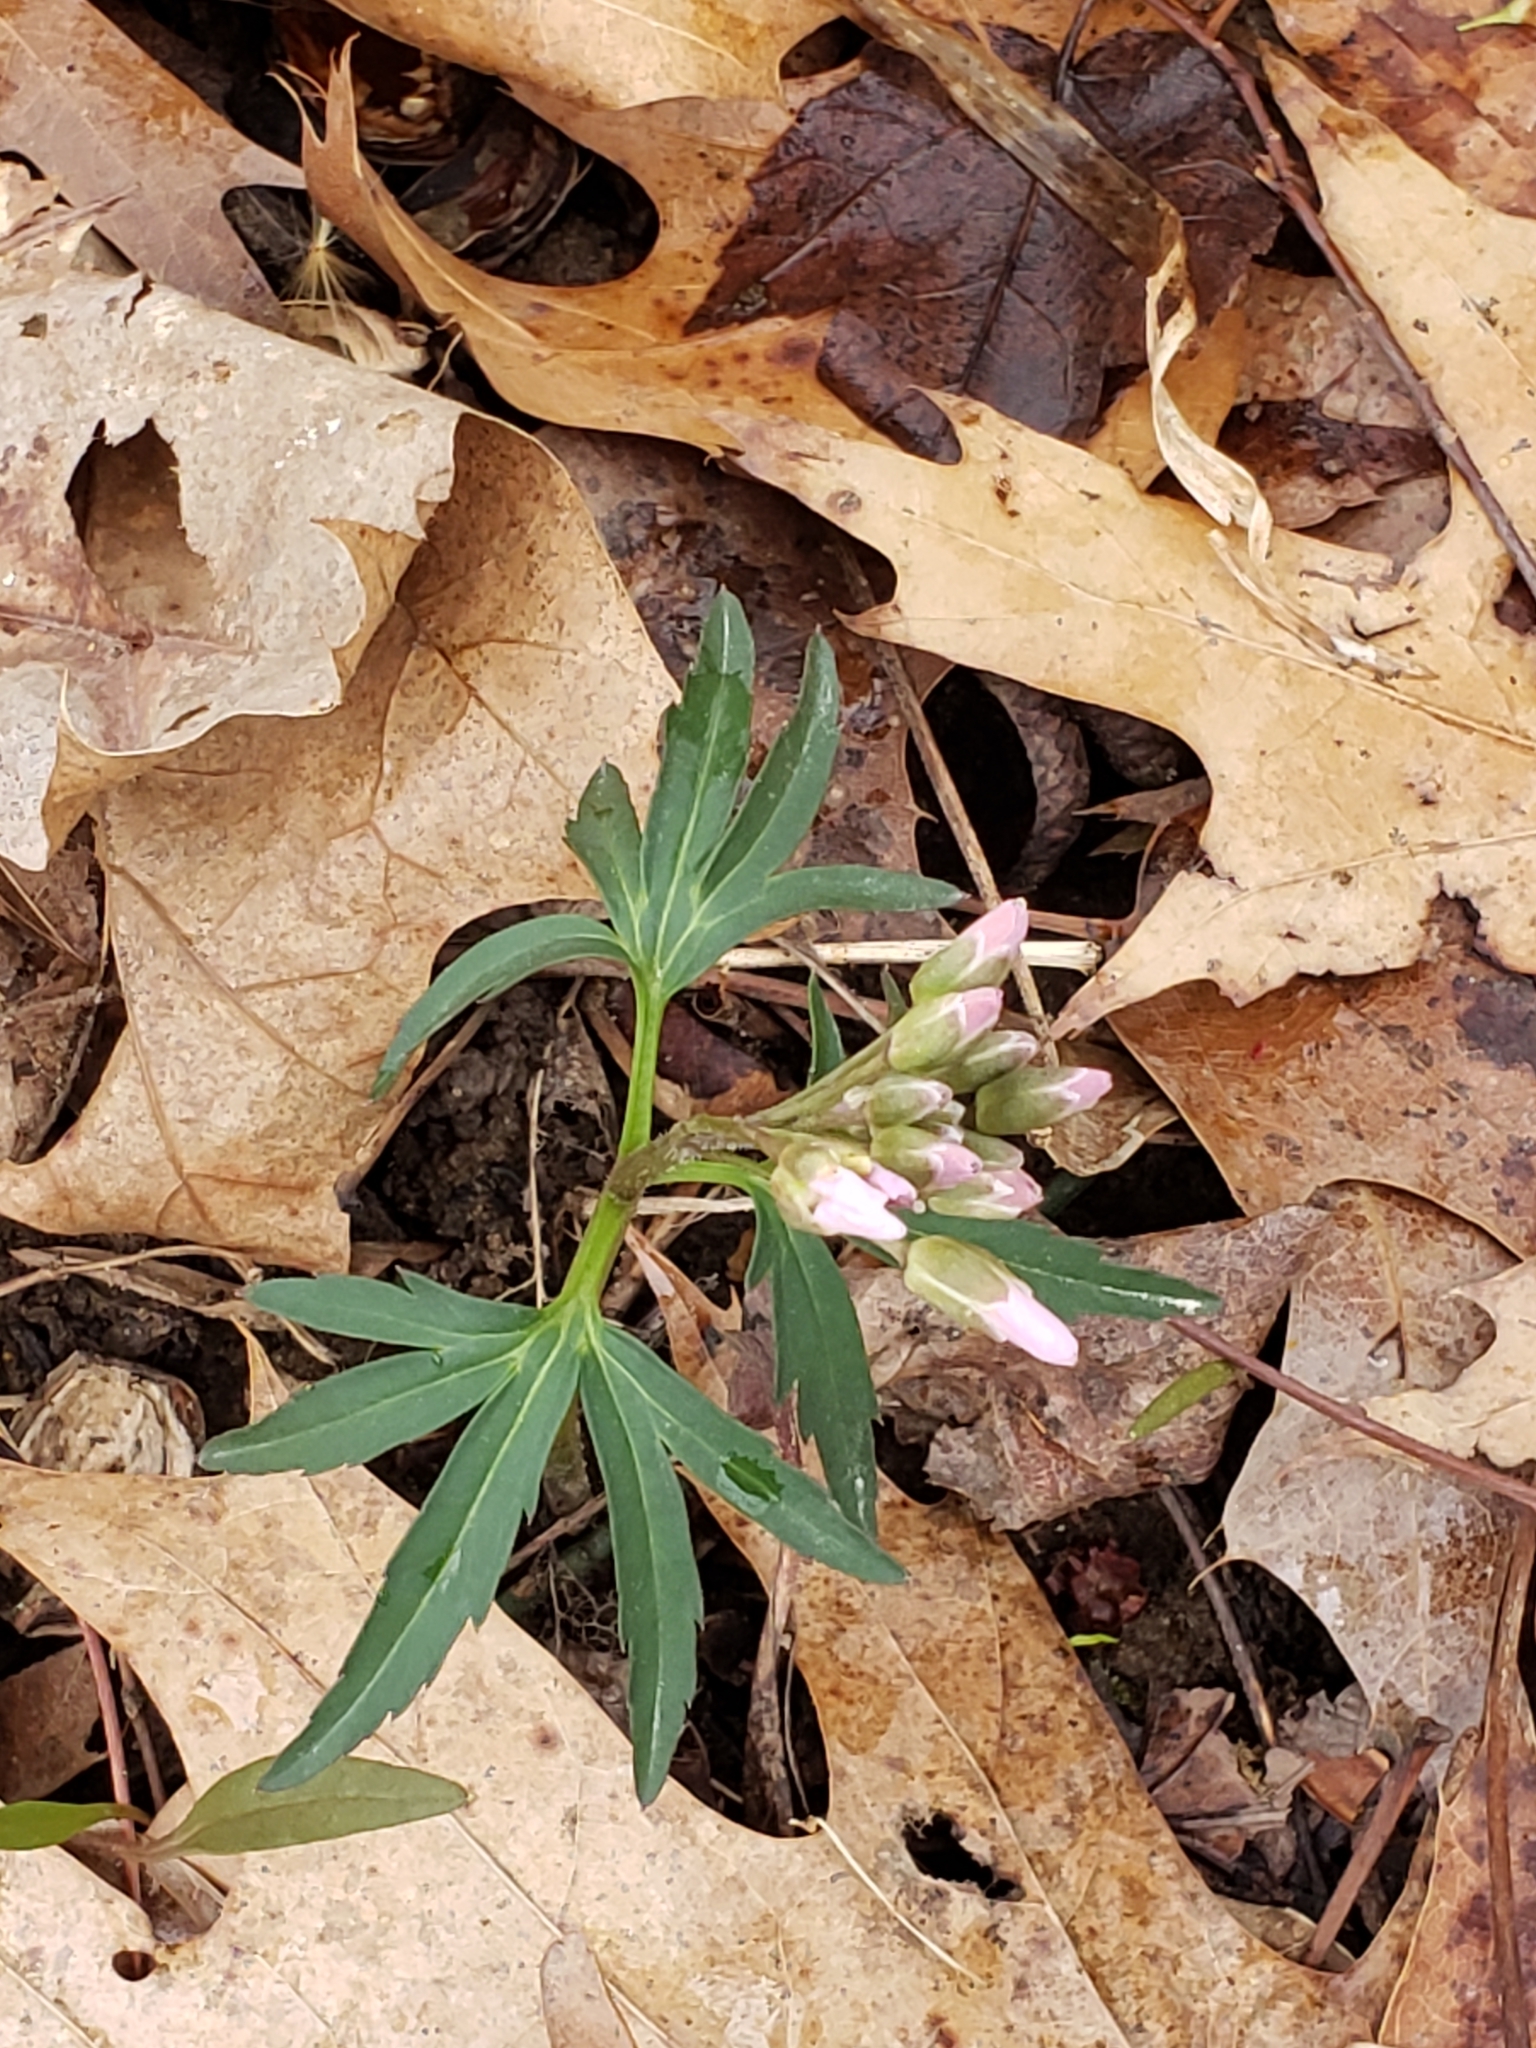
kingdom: Plantae
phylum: Tracheophyta
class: Magnoliopsida
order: Brassicales
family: Brassicaceae
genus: Cardamine
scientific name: Cardamine concatenata
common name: Cut-leaf toothcup
